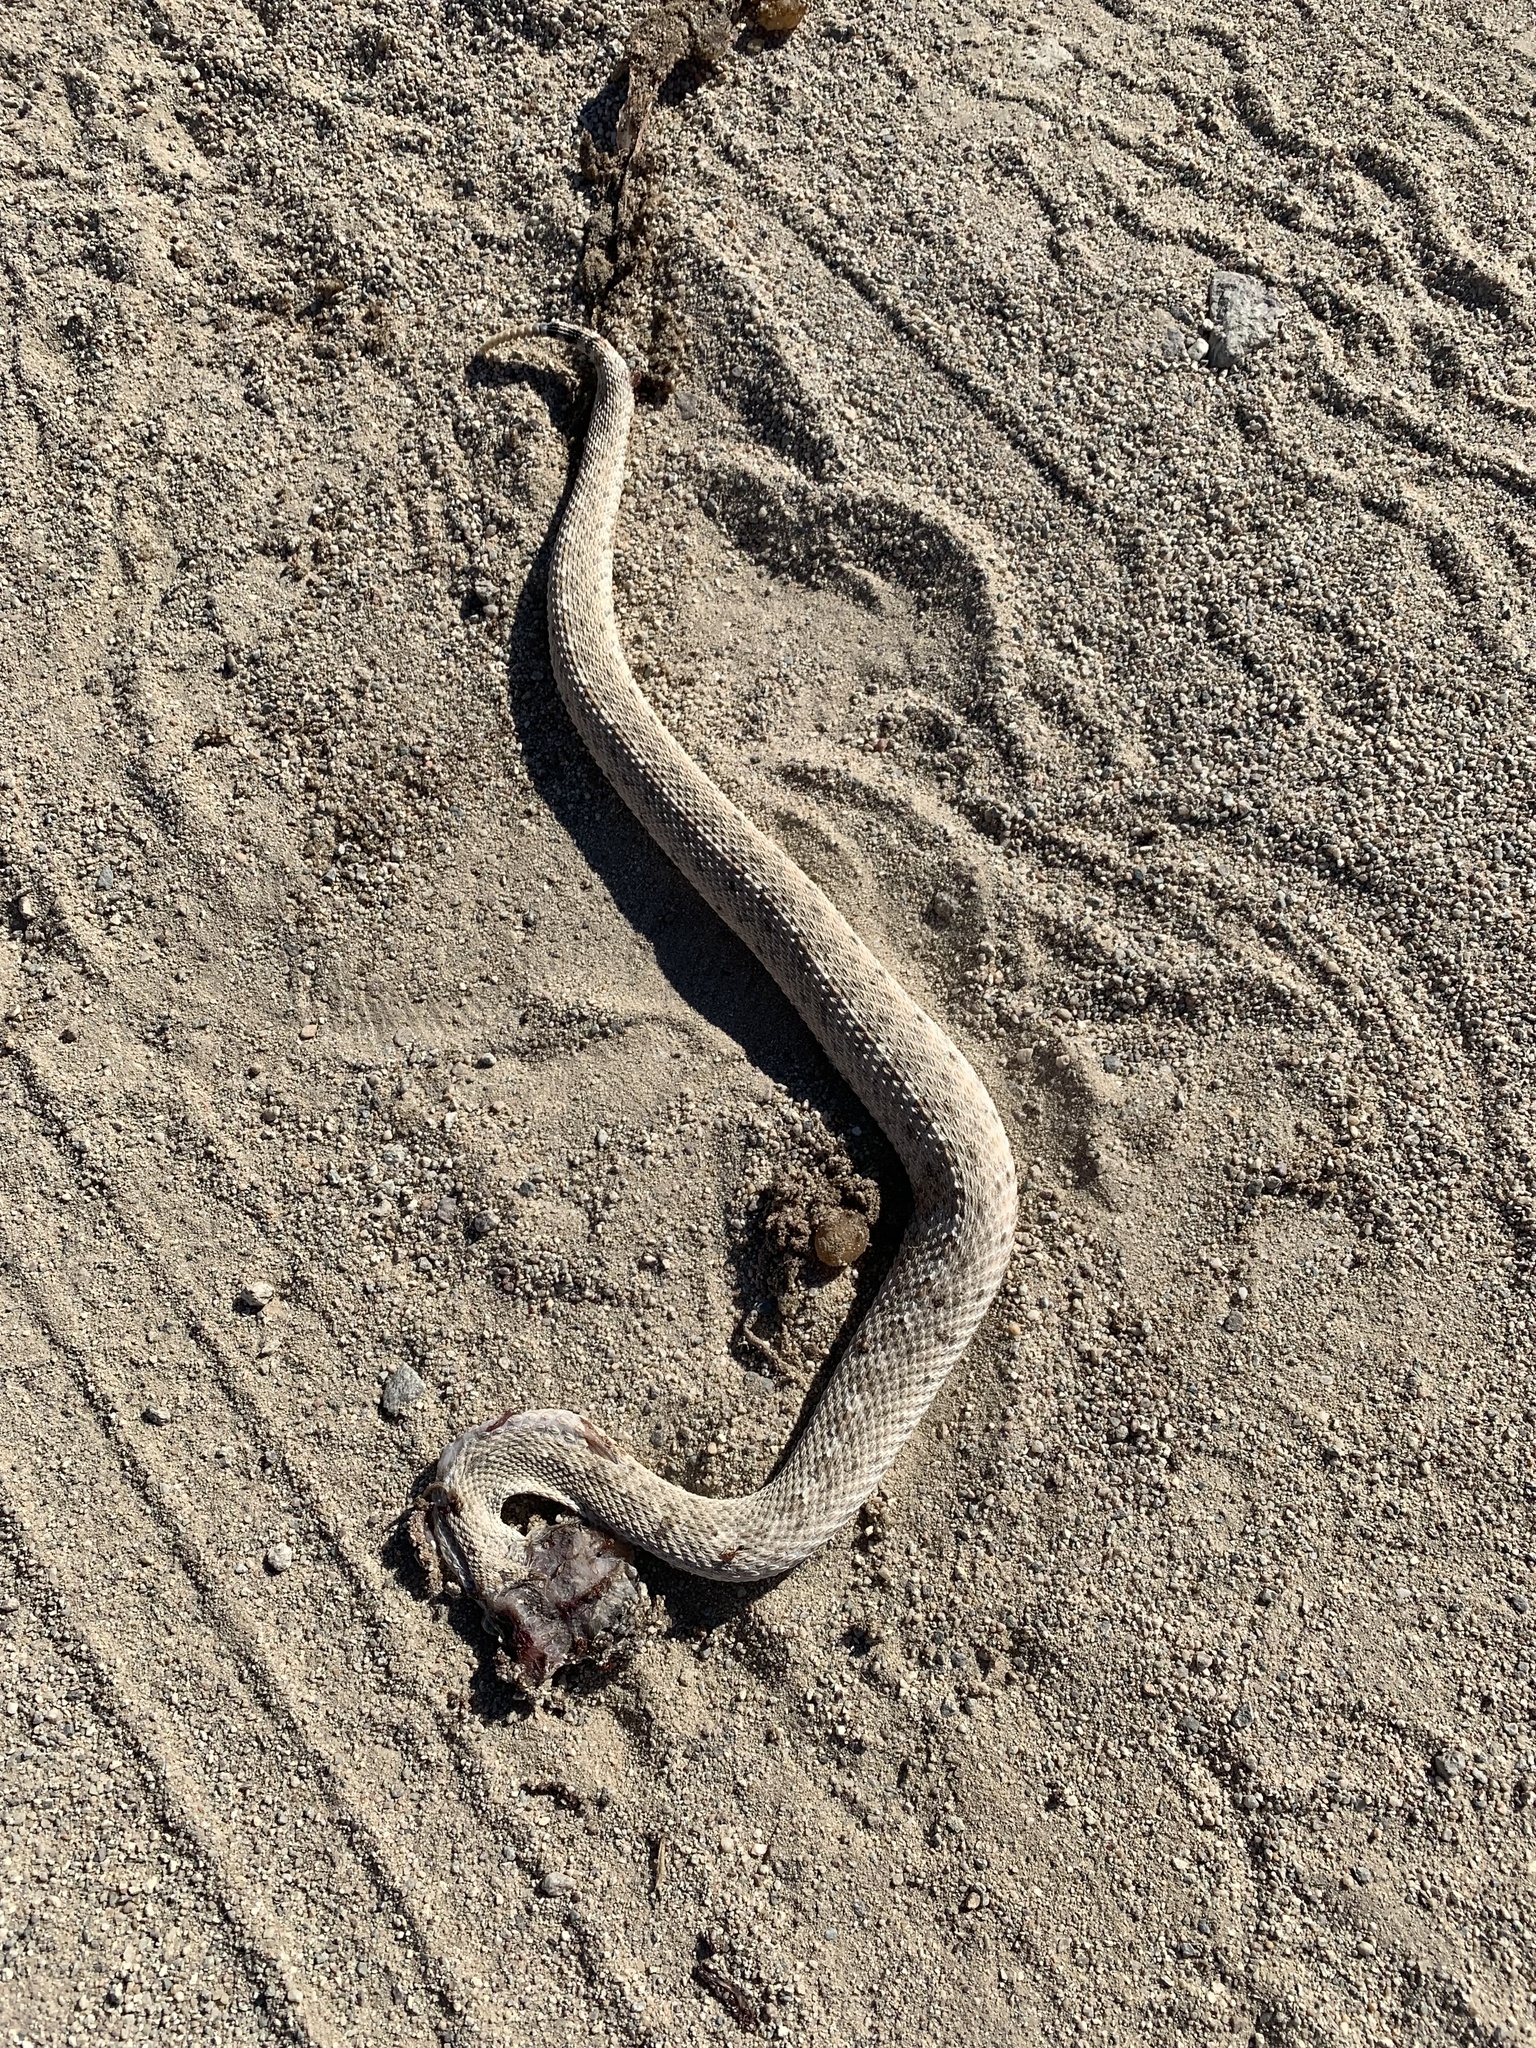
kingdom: Animalia
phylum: Chordata
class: Squamata
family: Viperidae
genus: Crotalus
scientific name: Crotalus cerastes
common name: Sidewinder
